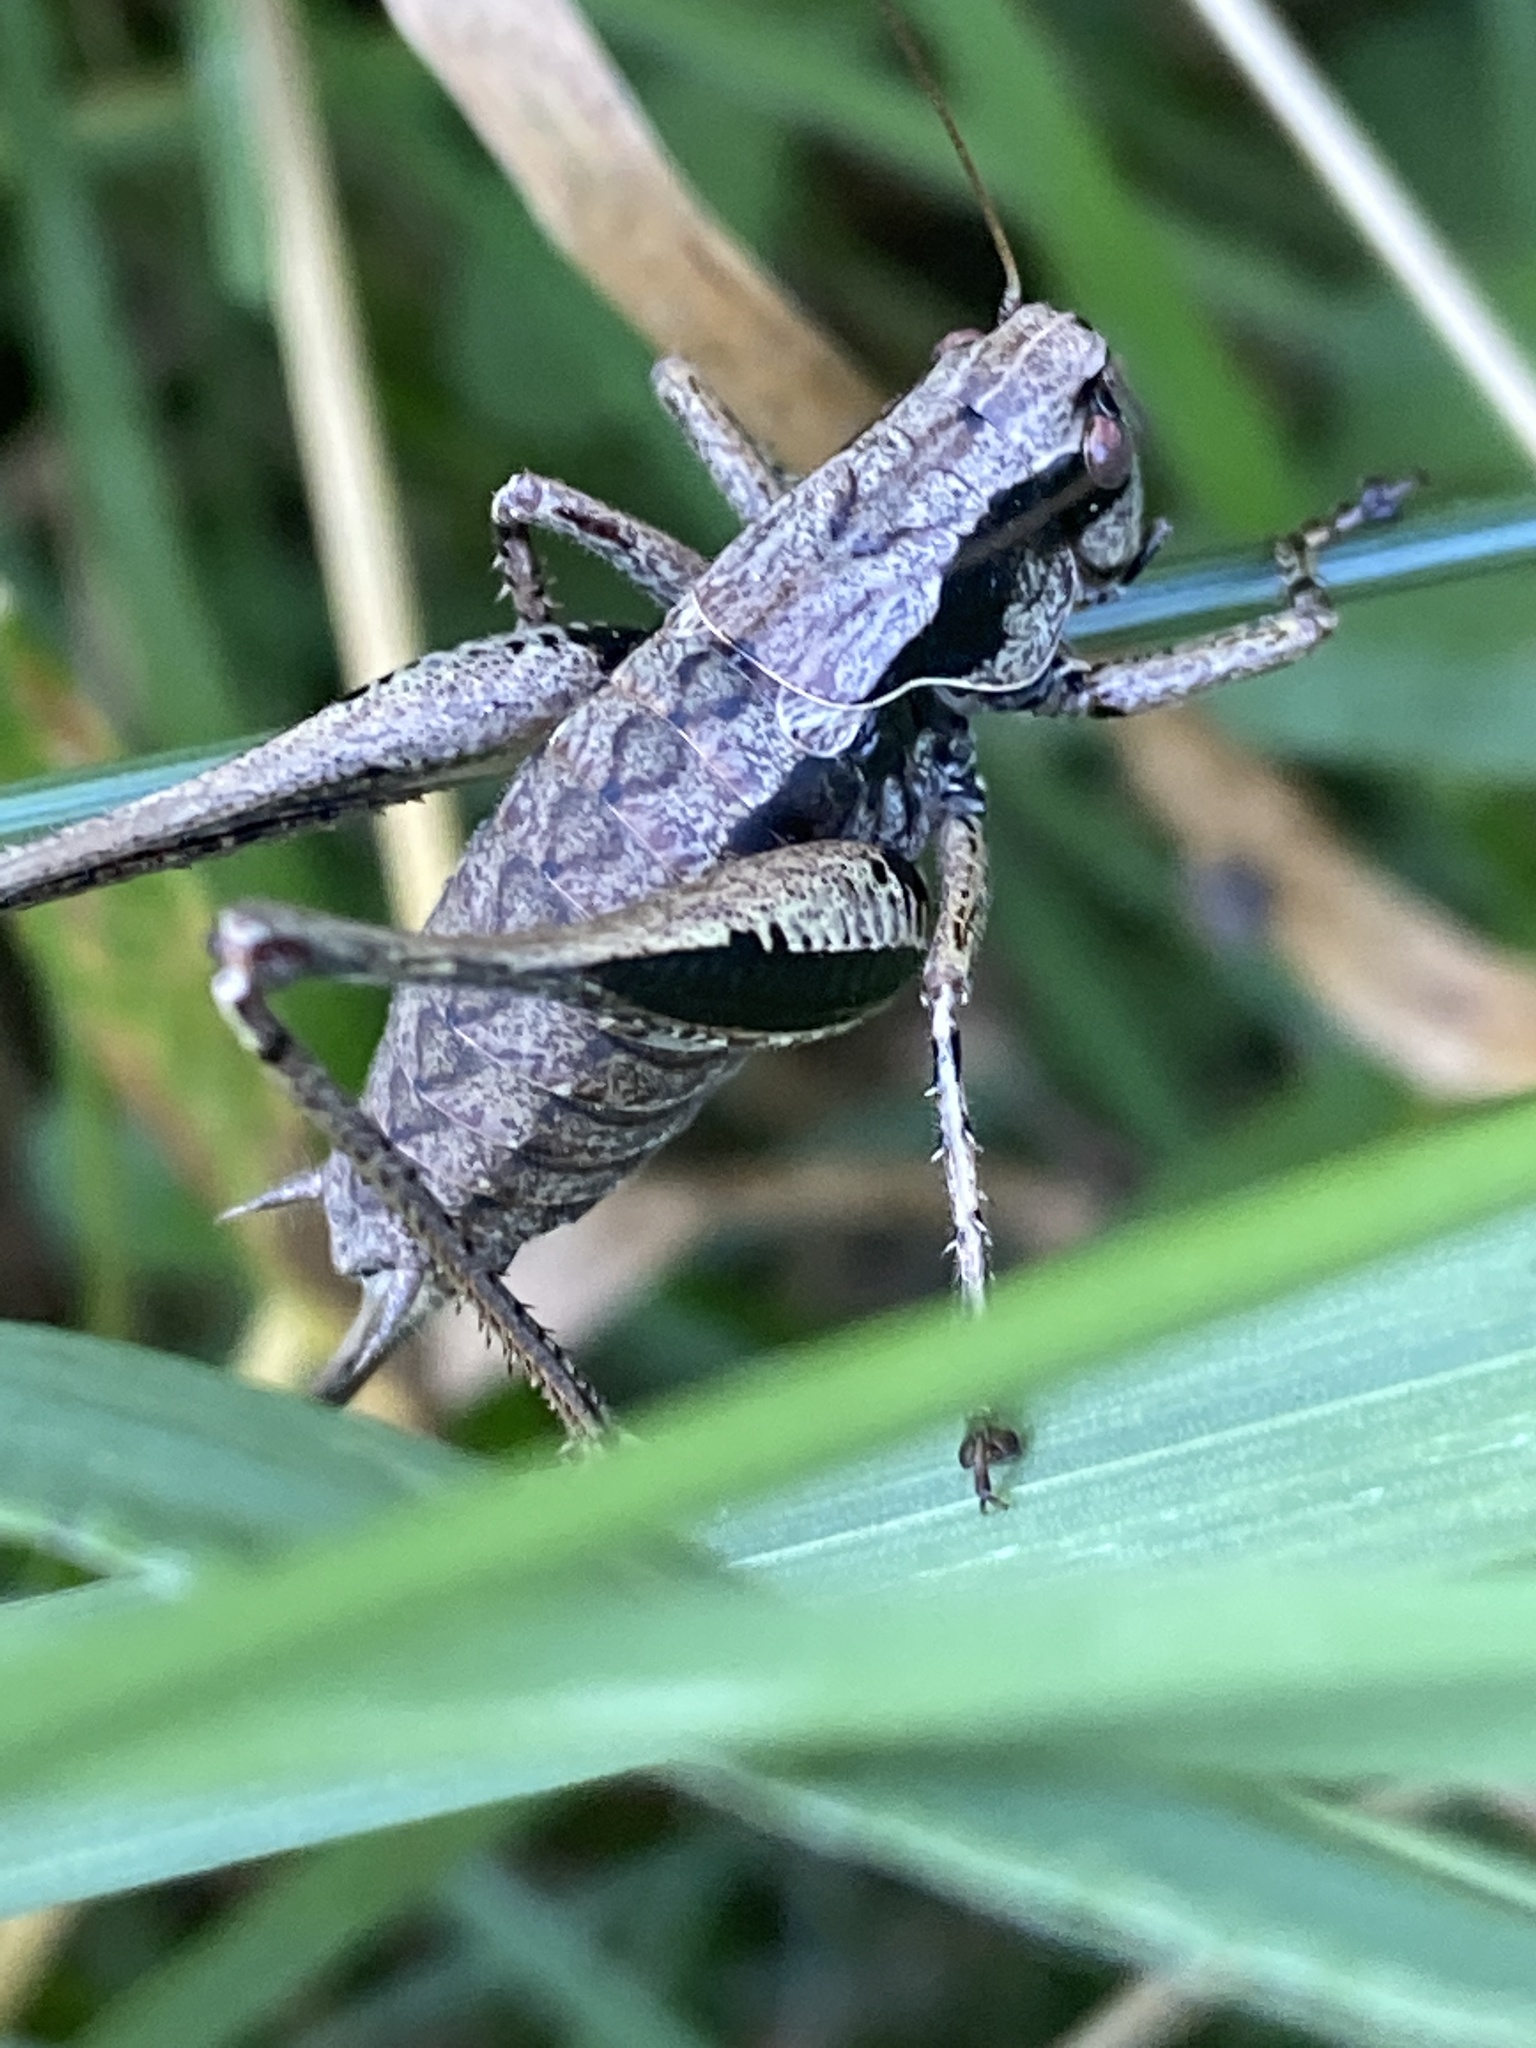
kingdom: Animalia
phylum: Arthropoda
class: Insecta
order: Orthoptera
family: Tettigoniidae
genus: Pholidoptera
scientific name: Pholidoptera griseoaptera
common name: Dark bush-cricket
